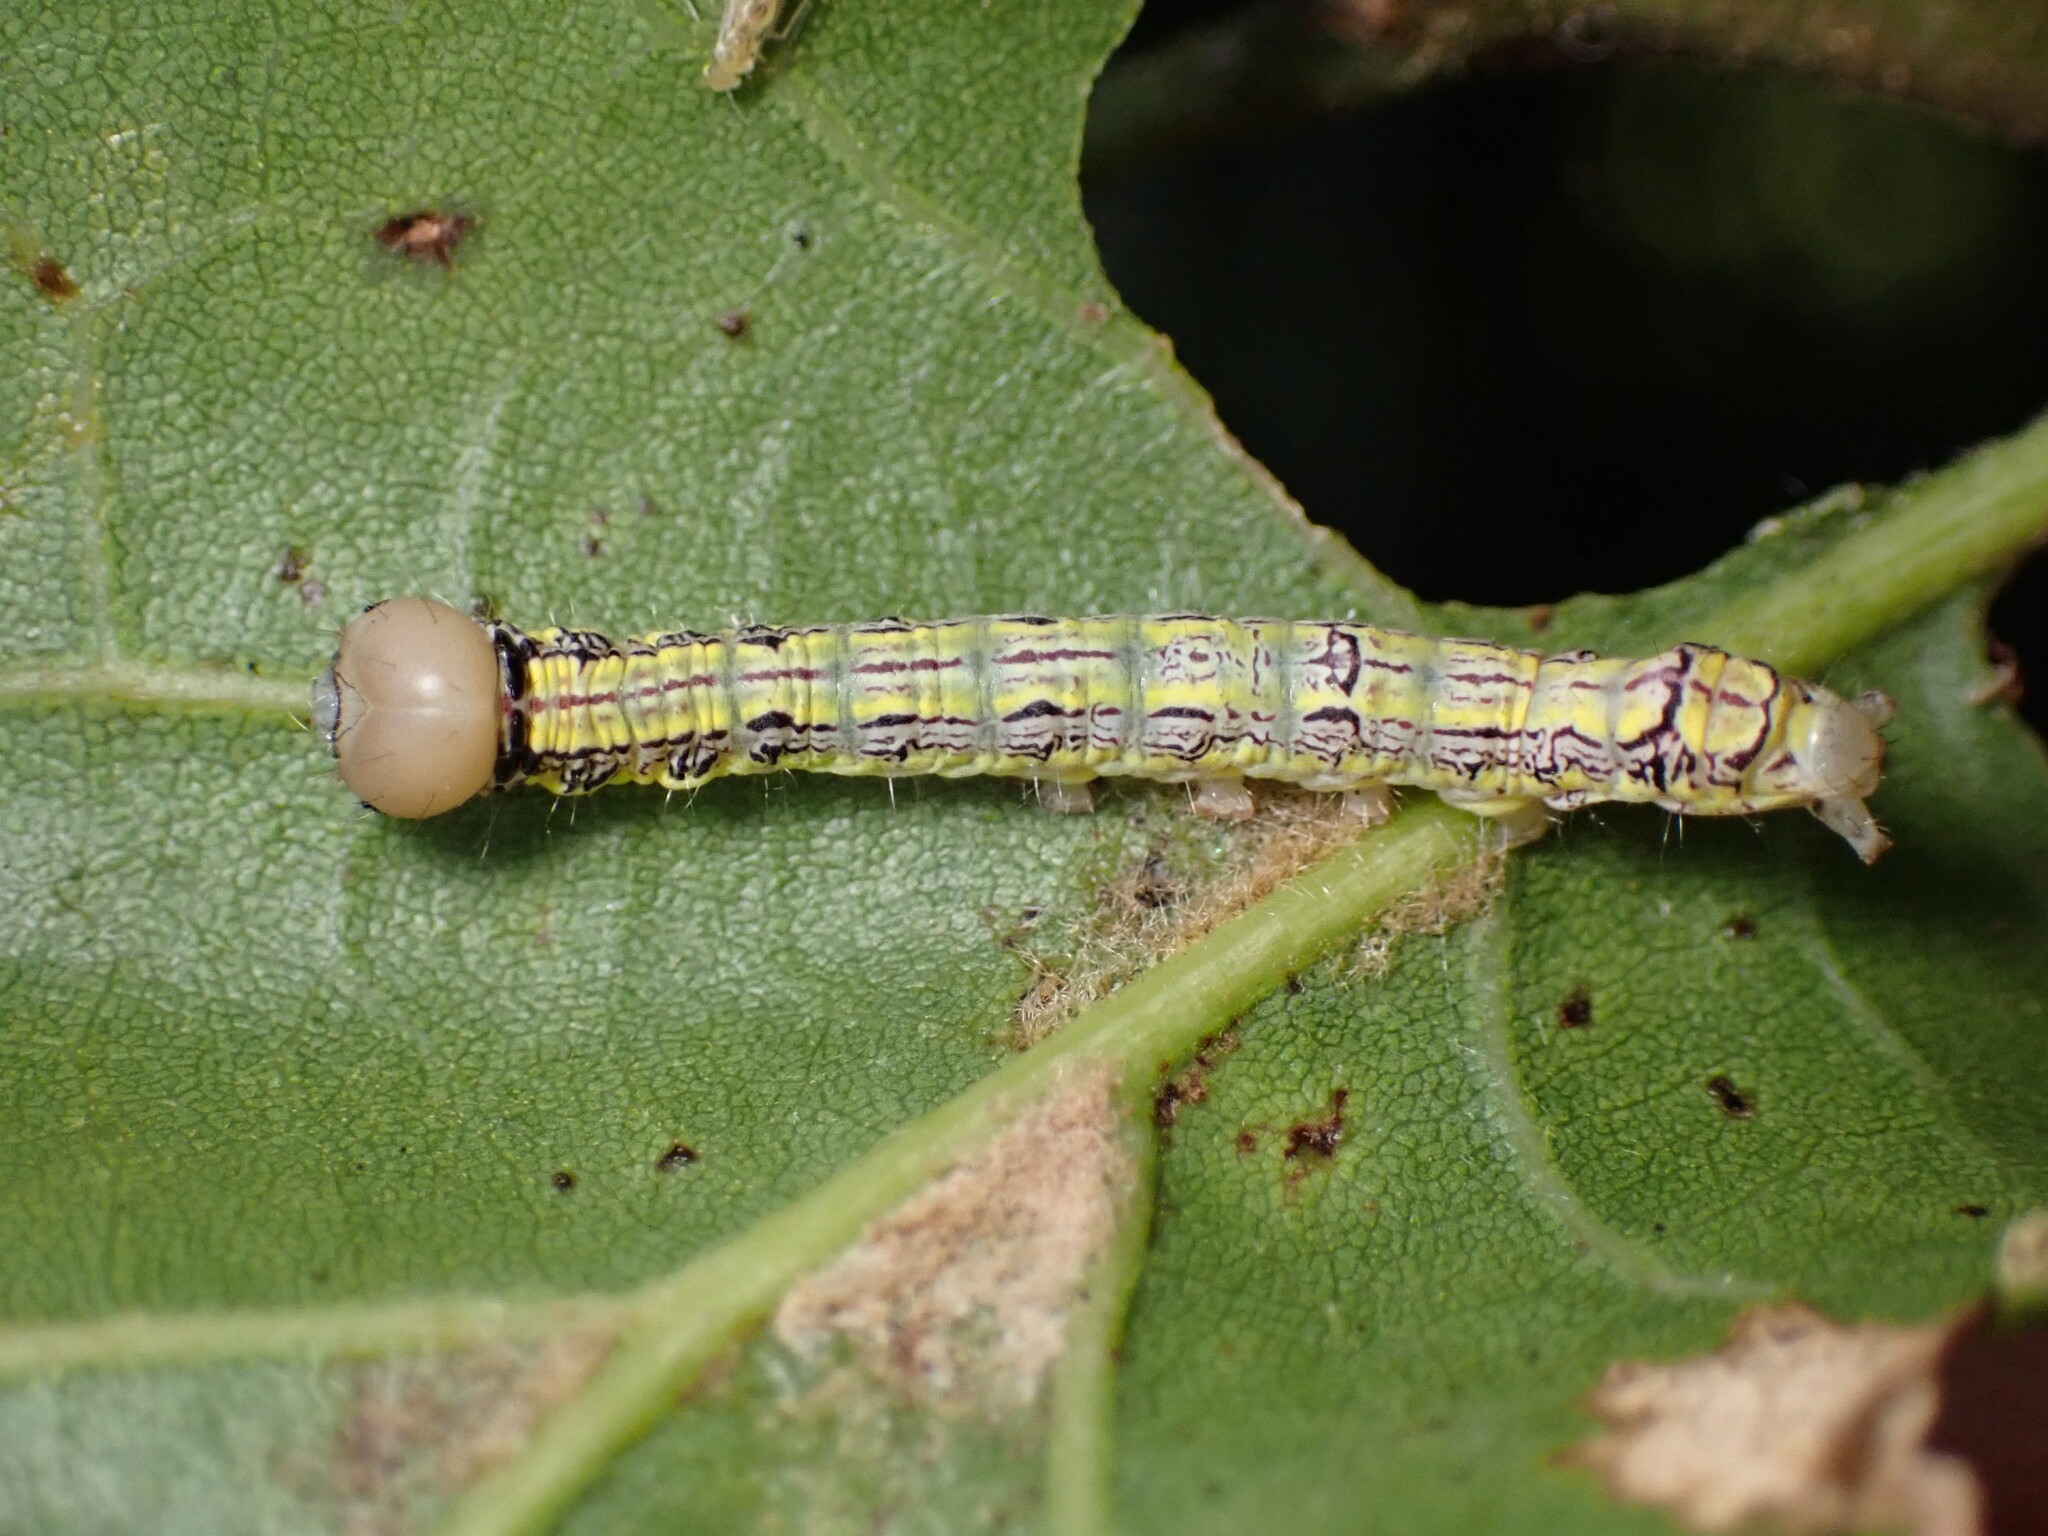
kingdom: Animalia
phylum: Arthropoda
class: Insecta
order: Lepidoptera
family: Notodontidae
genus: Phryganidia
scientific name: Phryganidia californica
